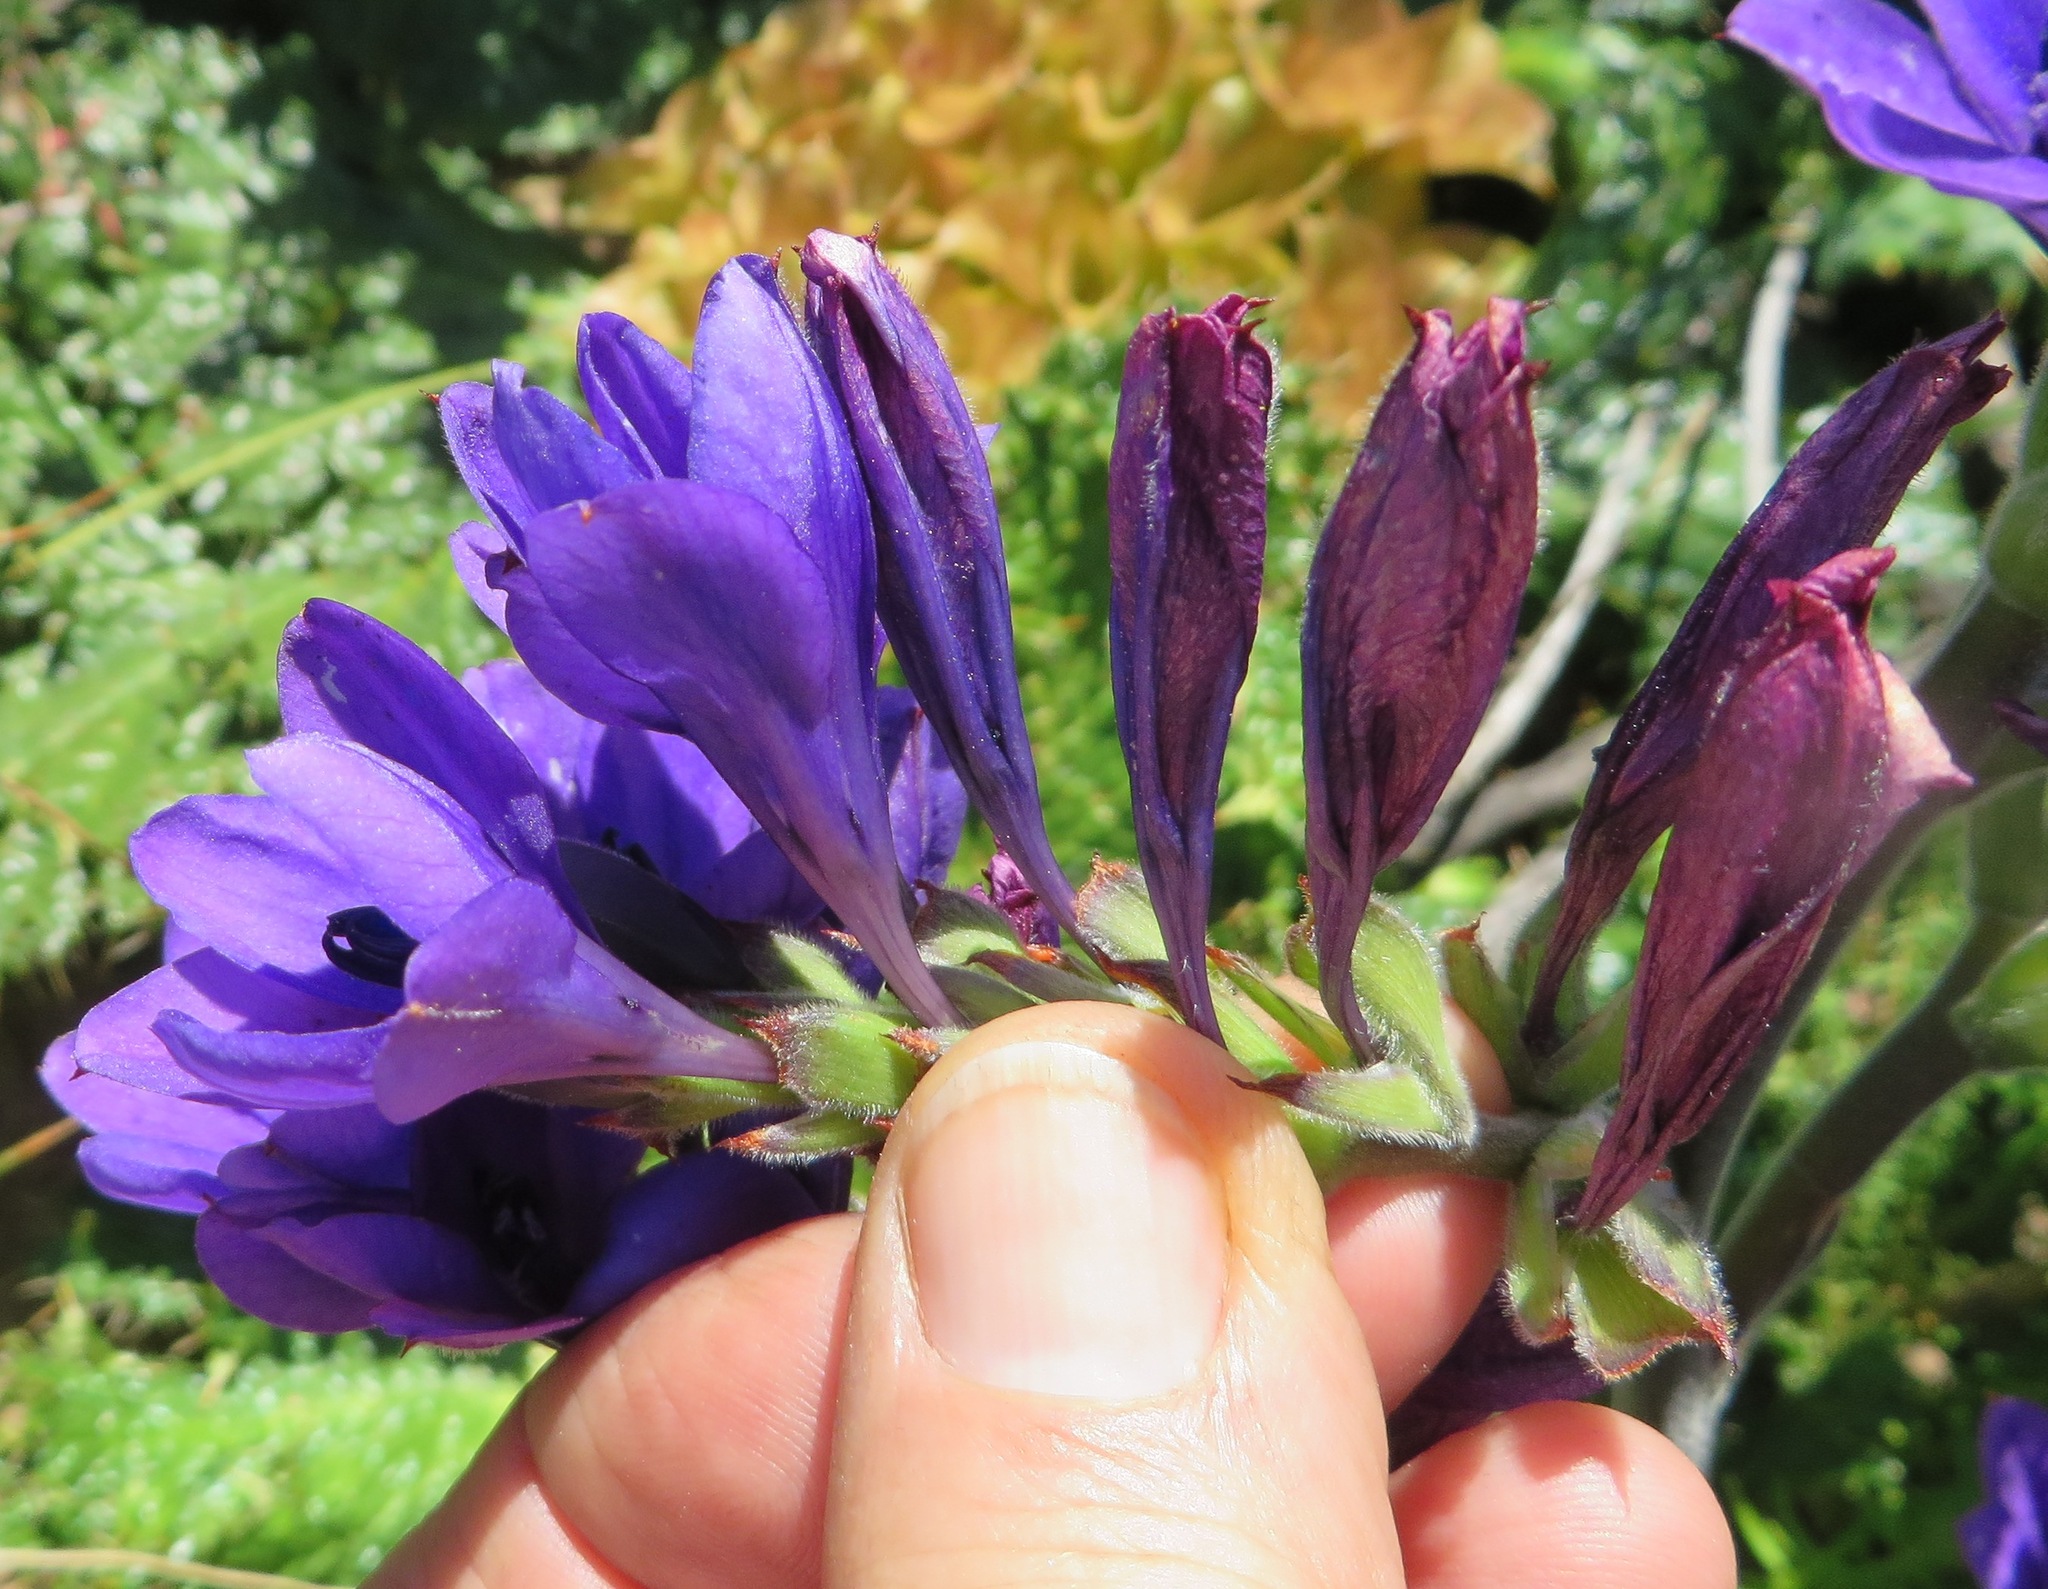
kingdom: Plantae
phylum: Tracheophyta
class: Liliopsida
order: Asparagales
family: Iridaceae
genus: Babiana
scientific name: Babiana angustifolia
